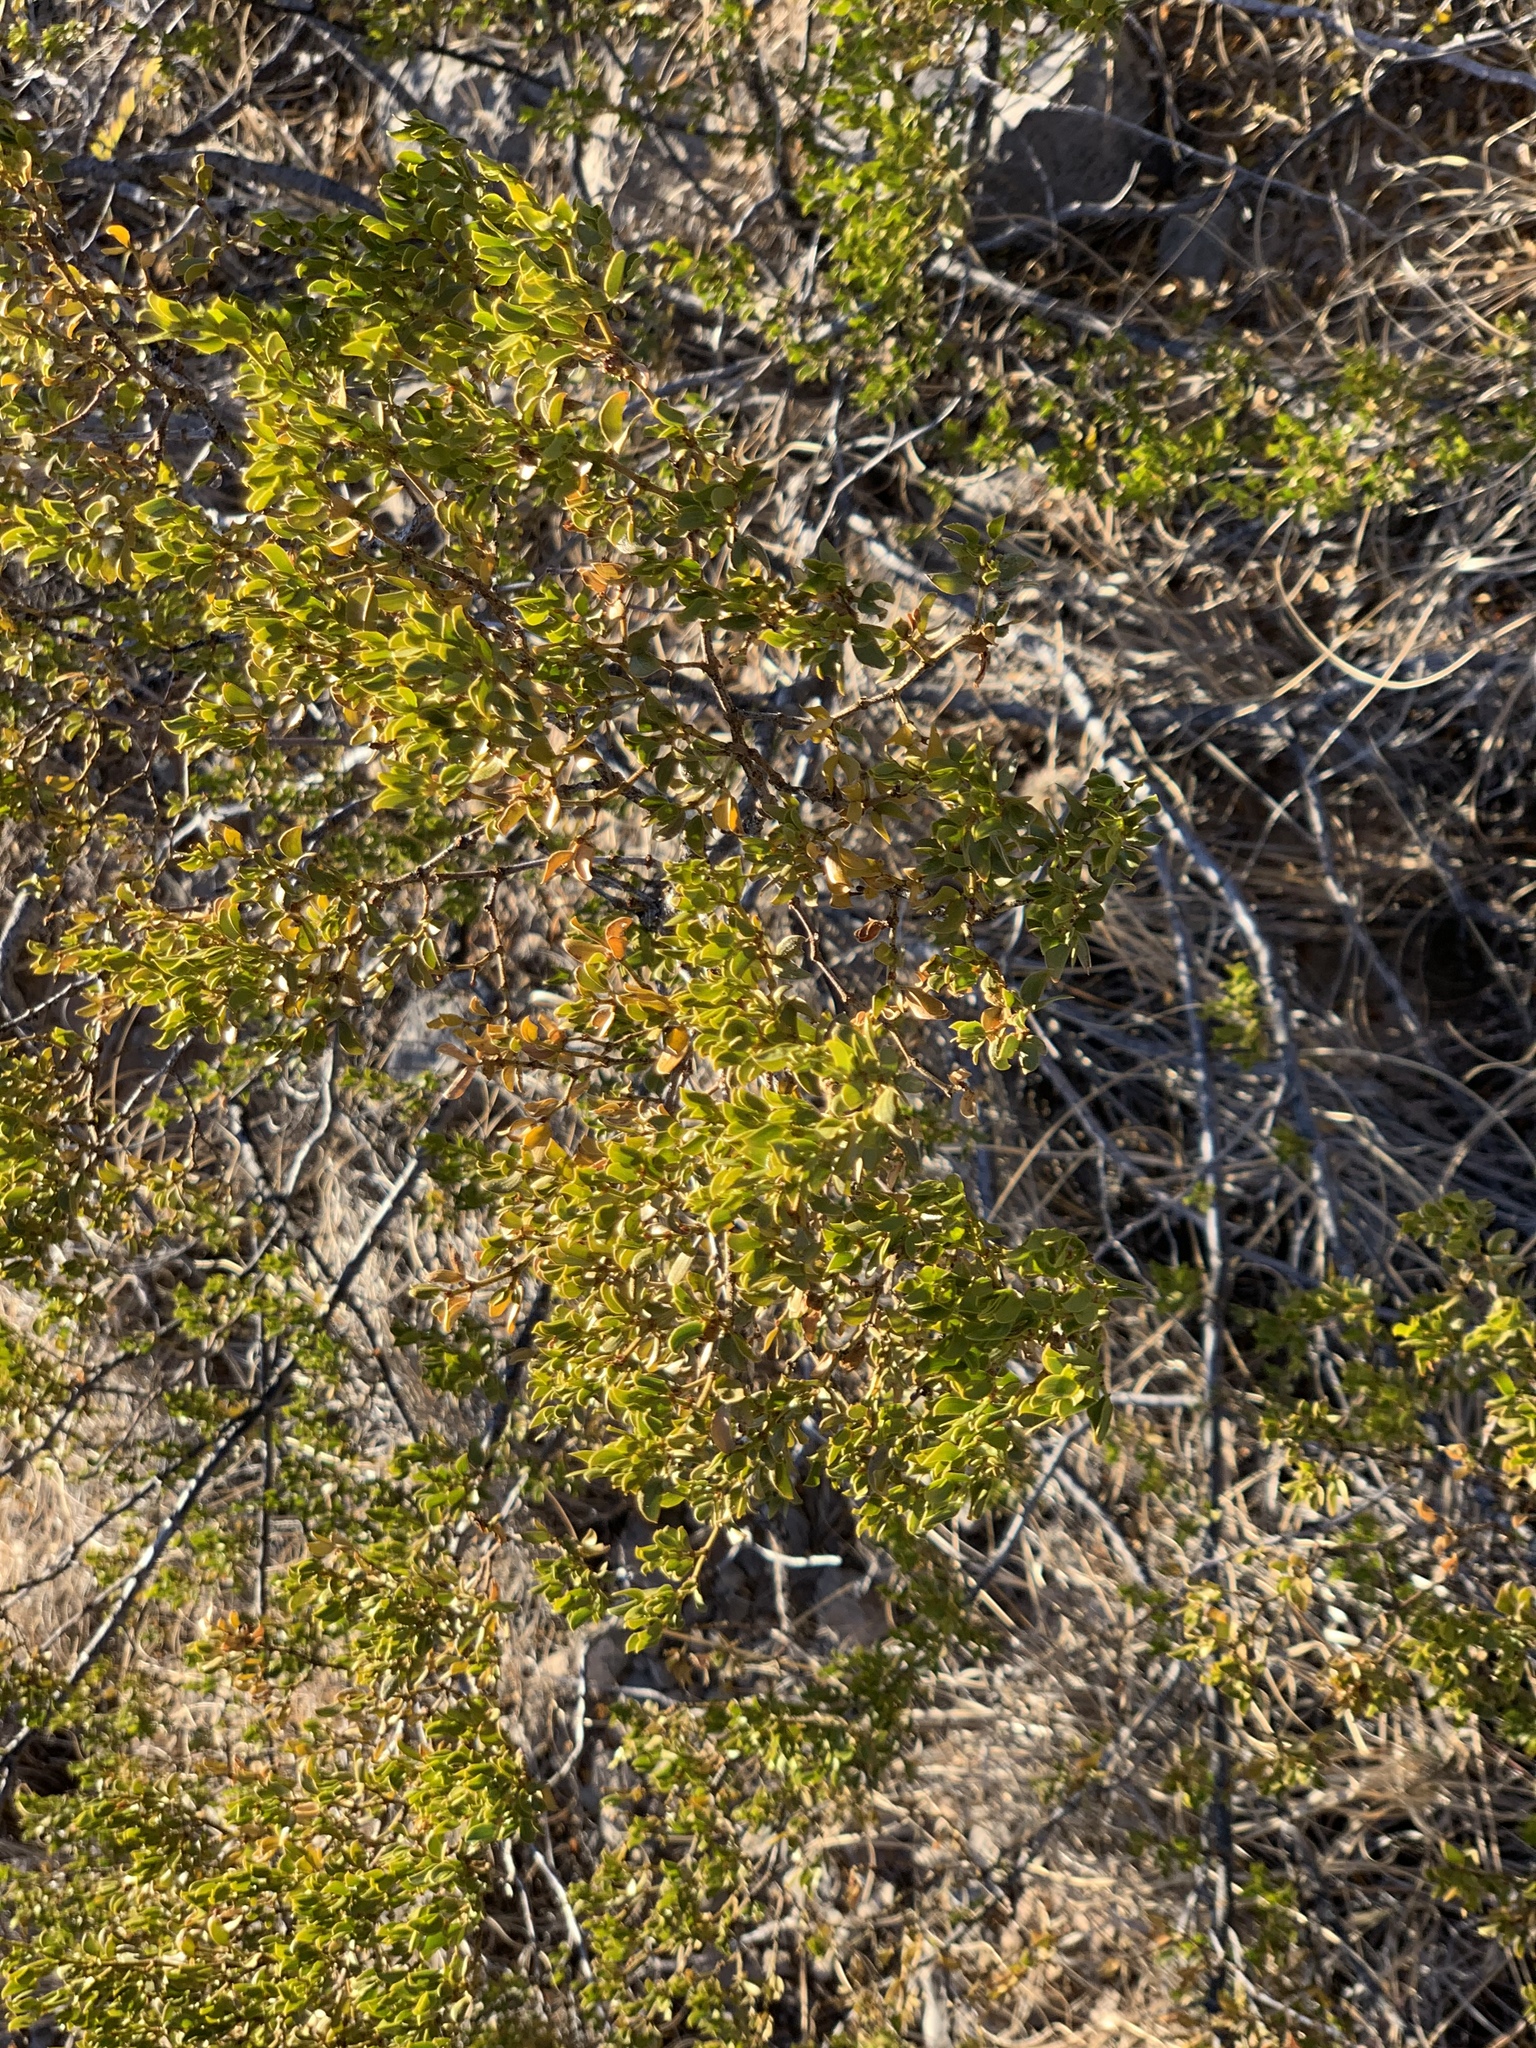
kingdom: Plantae
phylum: Tracheophyta
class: Magnoliopsida
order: Zygophyllales
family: Zygophyllaceae
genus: Larrea
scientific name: Larrea tridentata
